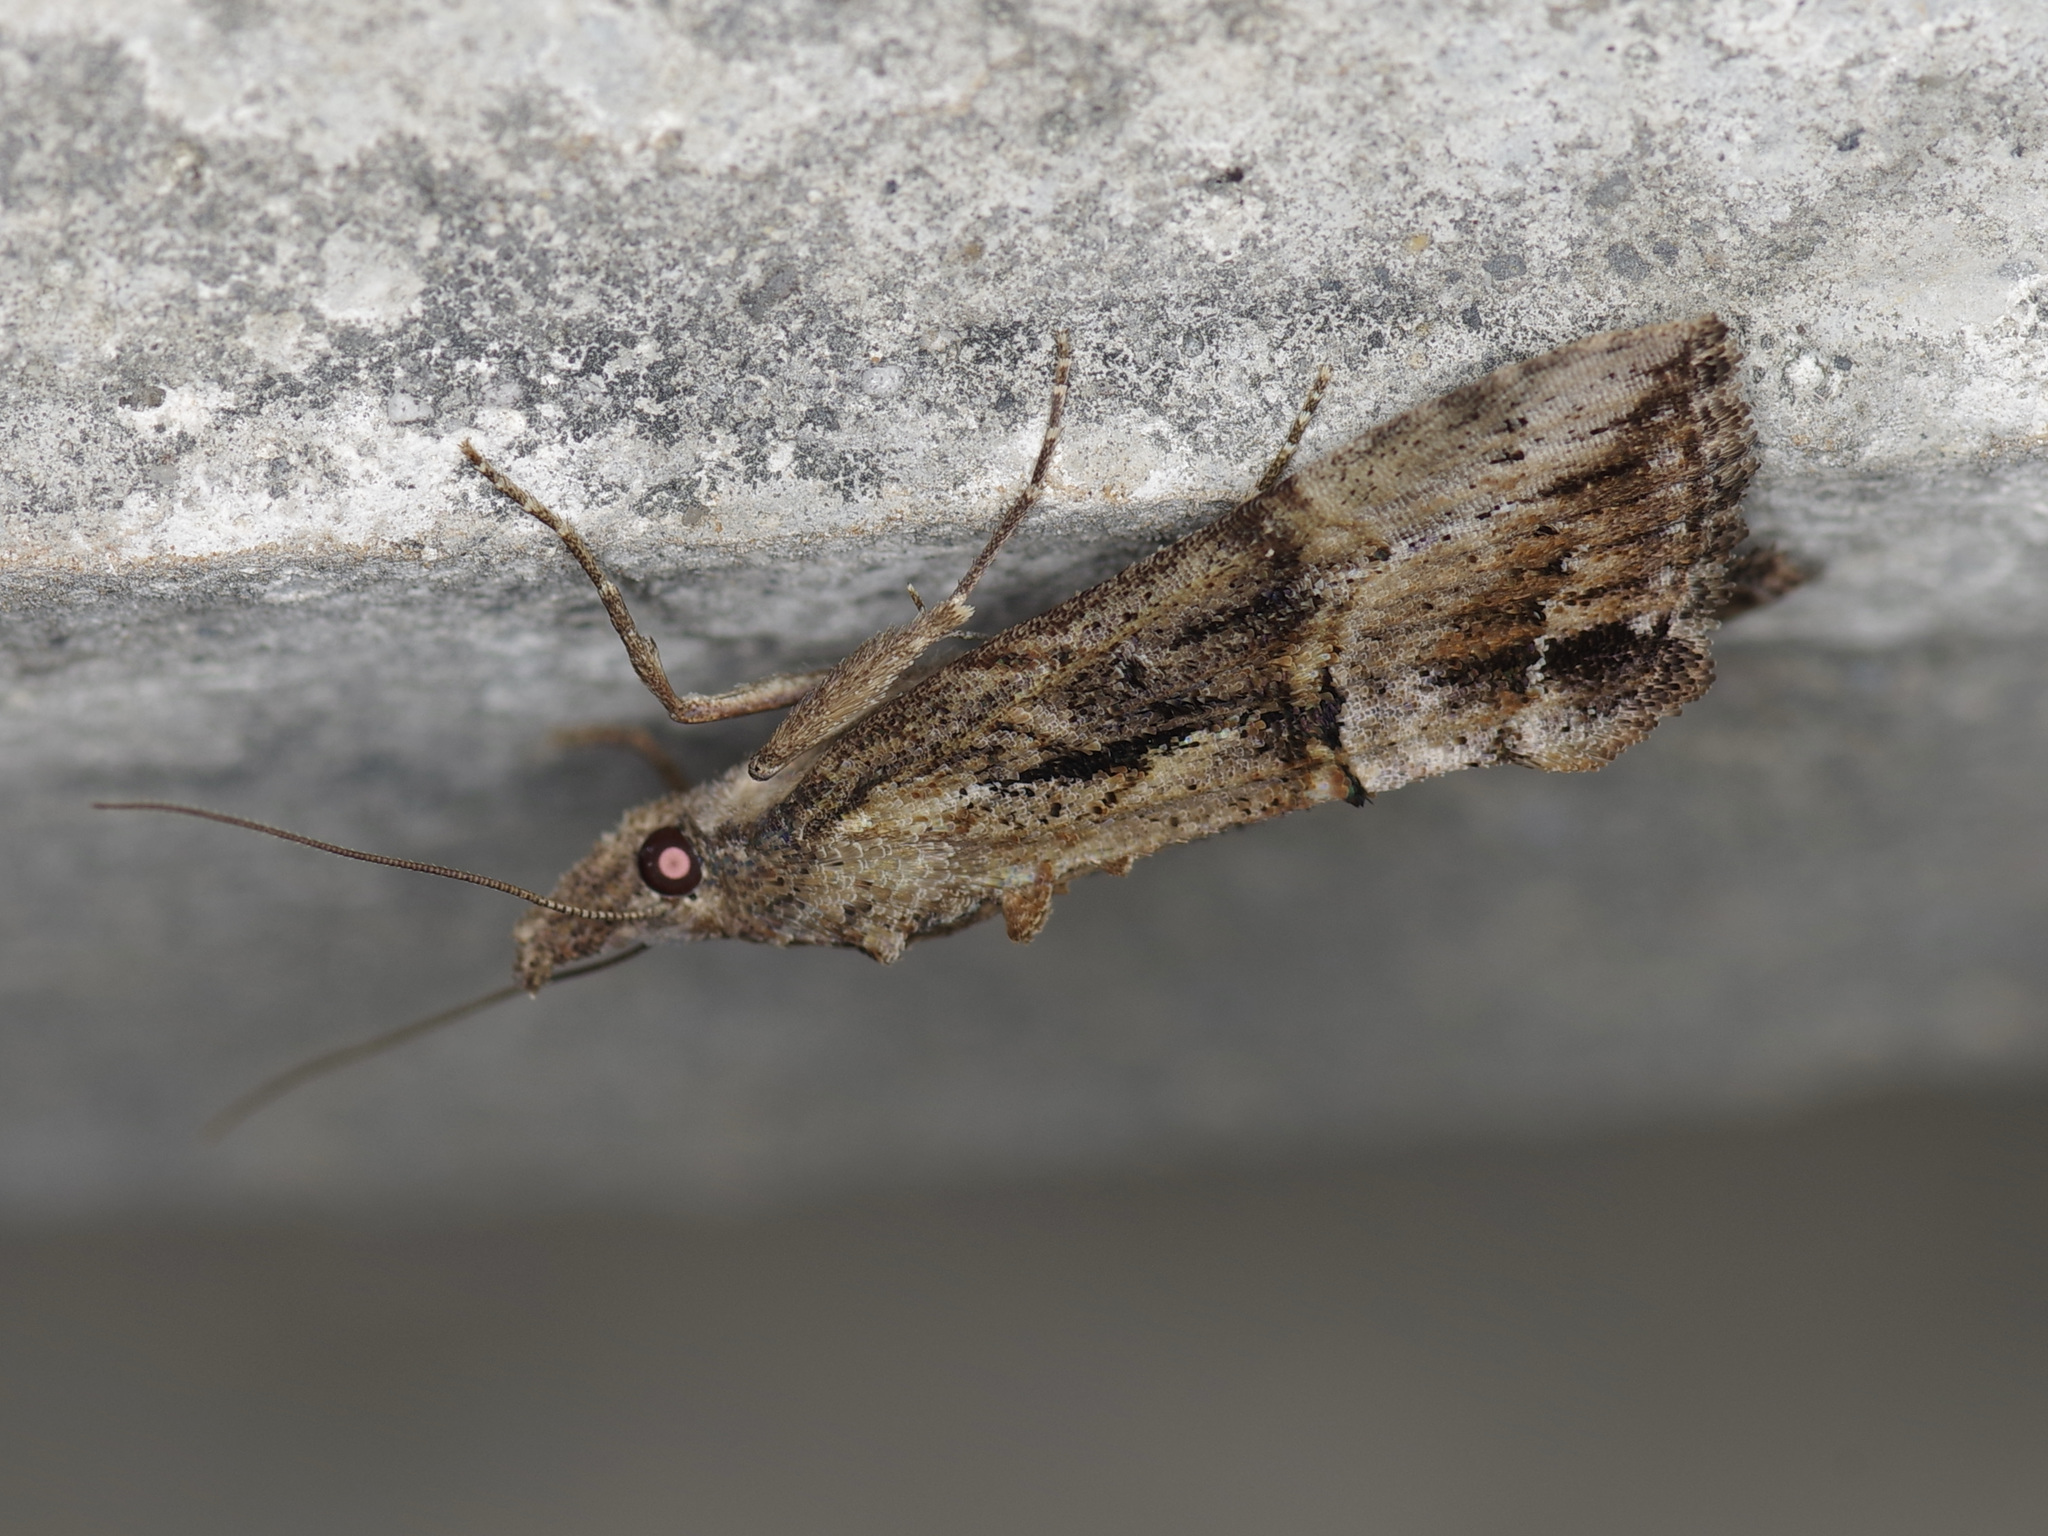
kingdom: Animalia
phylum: Arthropoda
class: Insecta
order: Lepidoptera
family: Erebidae
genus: Hypena
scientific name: Hypena scabra
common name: Green cloverworm
